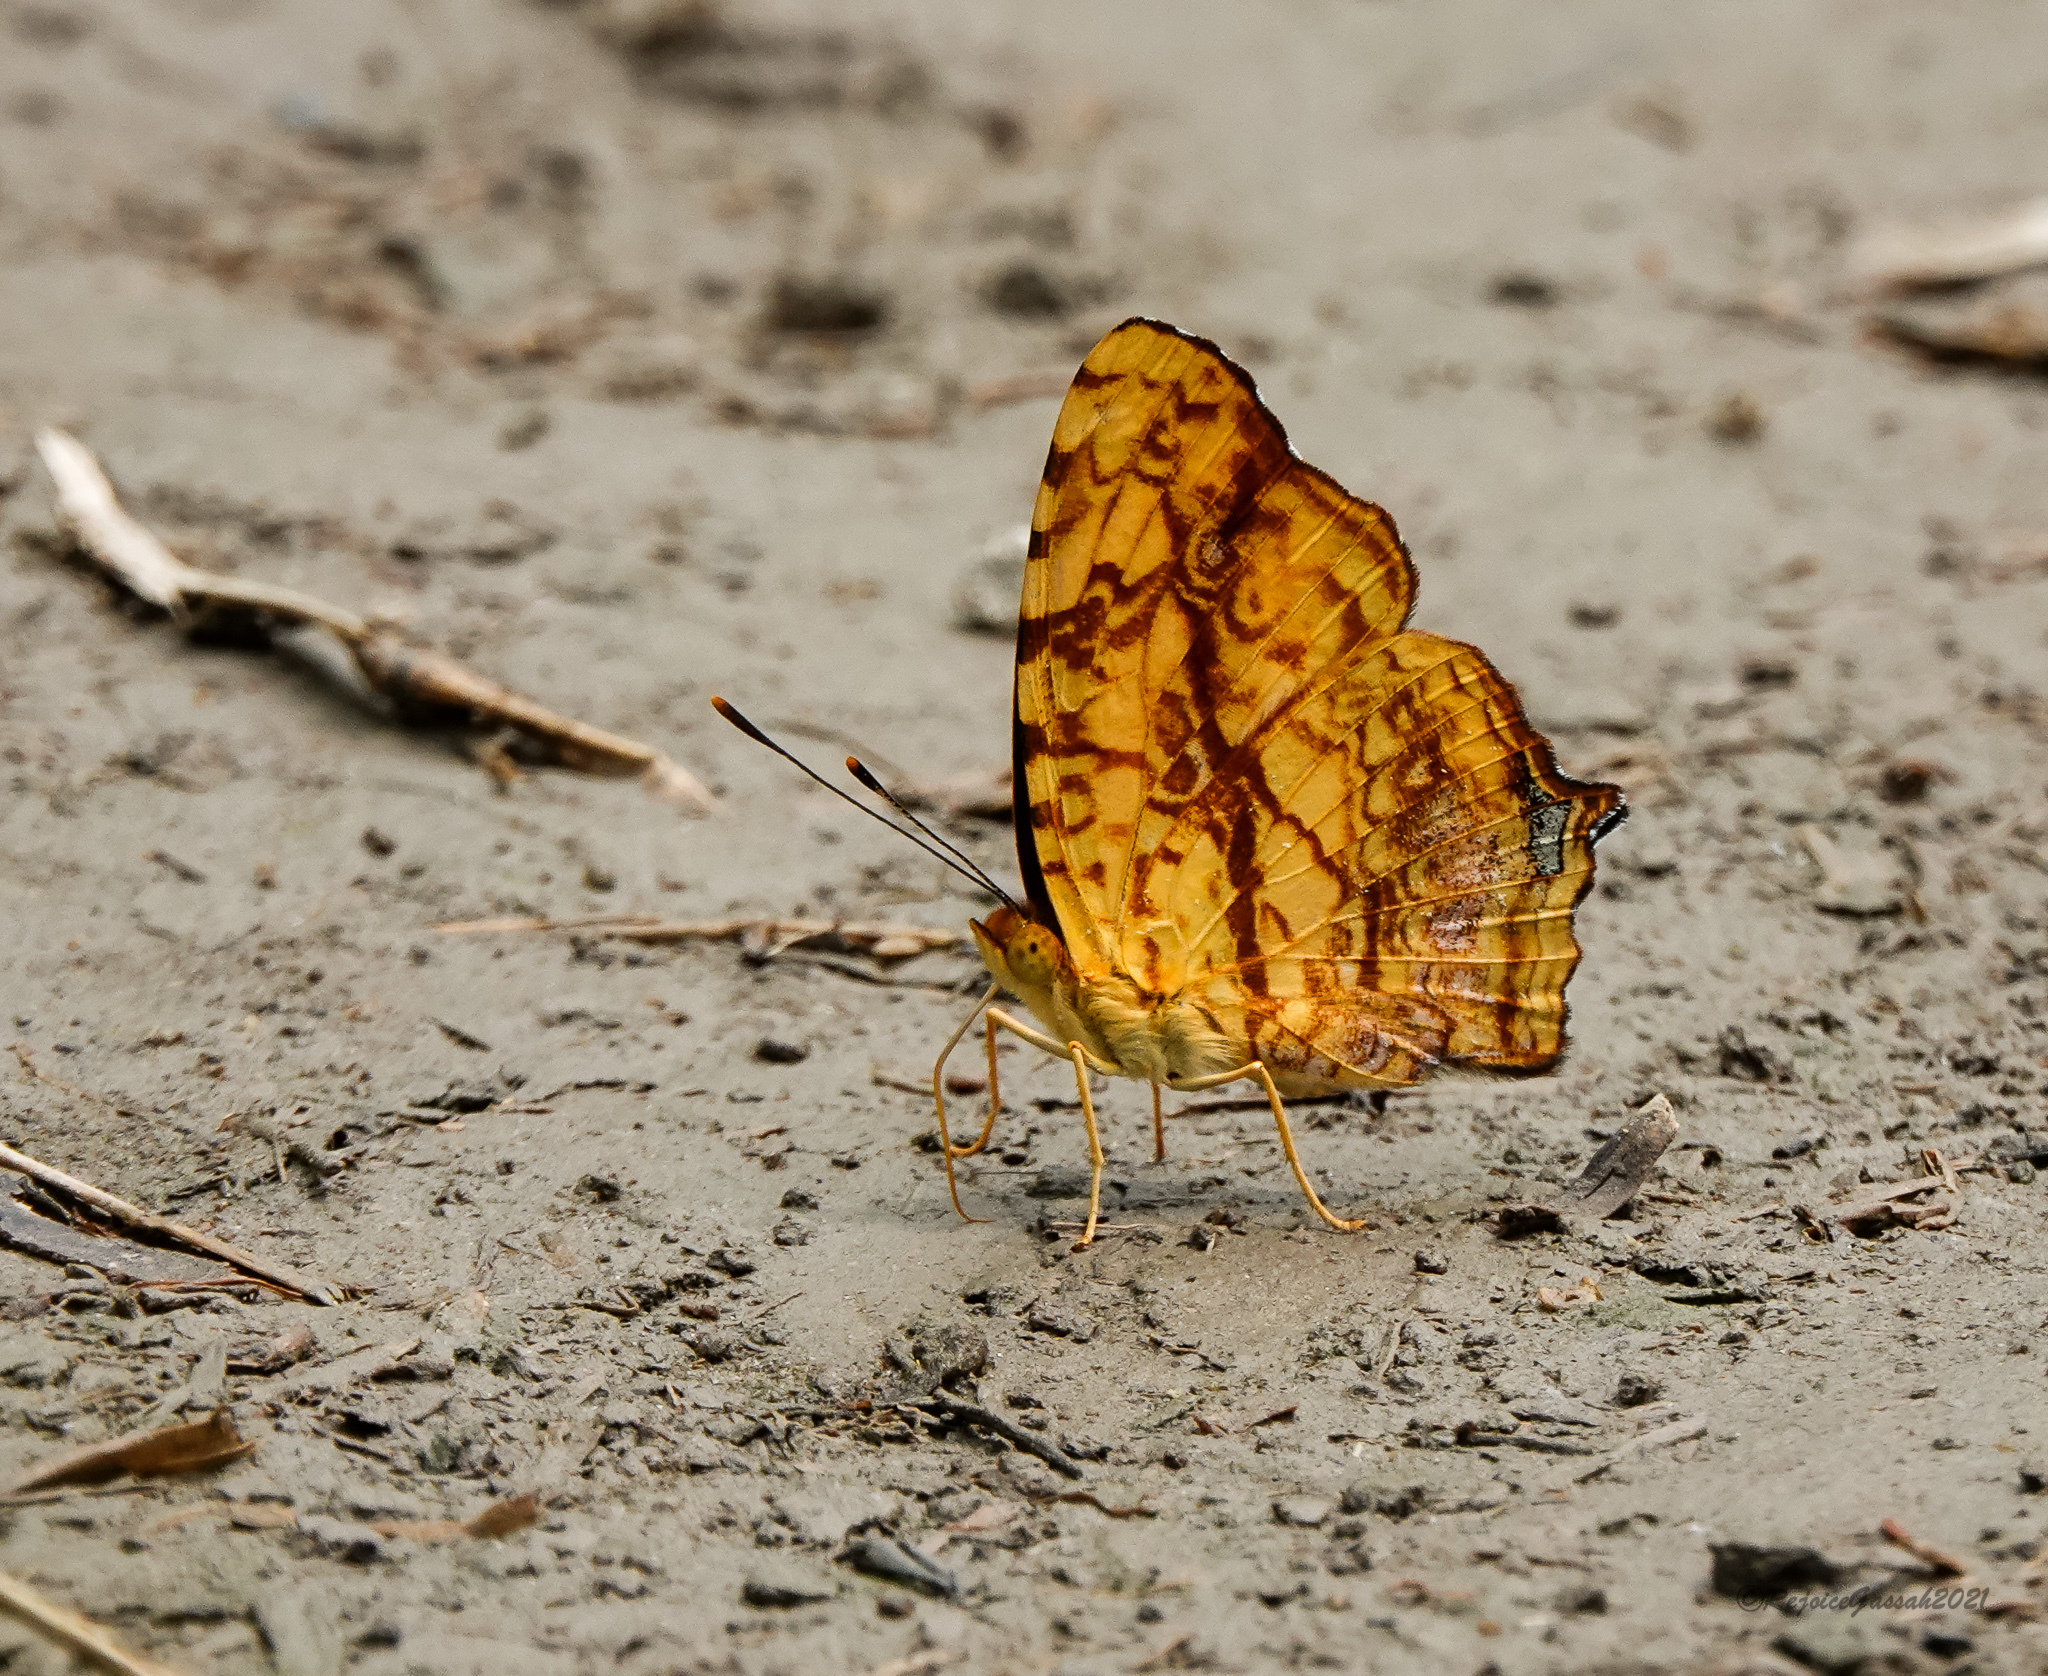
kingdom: Animalia
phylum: Arthropoda
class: Insecta
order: Lepidoptera
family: Nymphalidae
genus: Symbrenthia
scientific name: Symbrenthia hypselis
